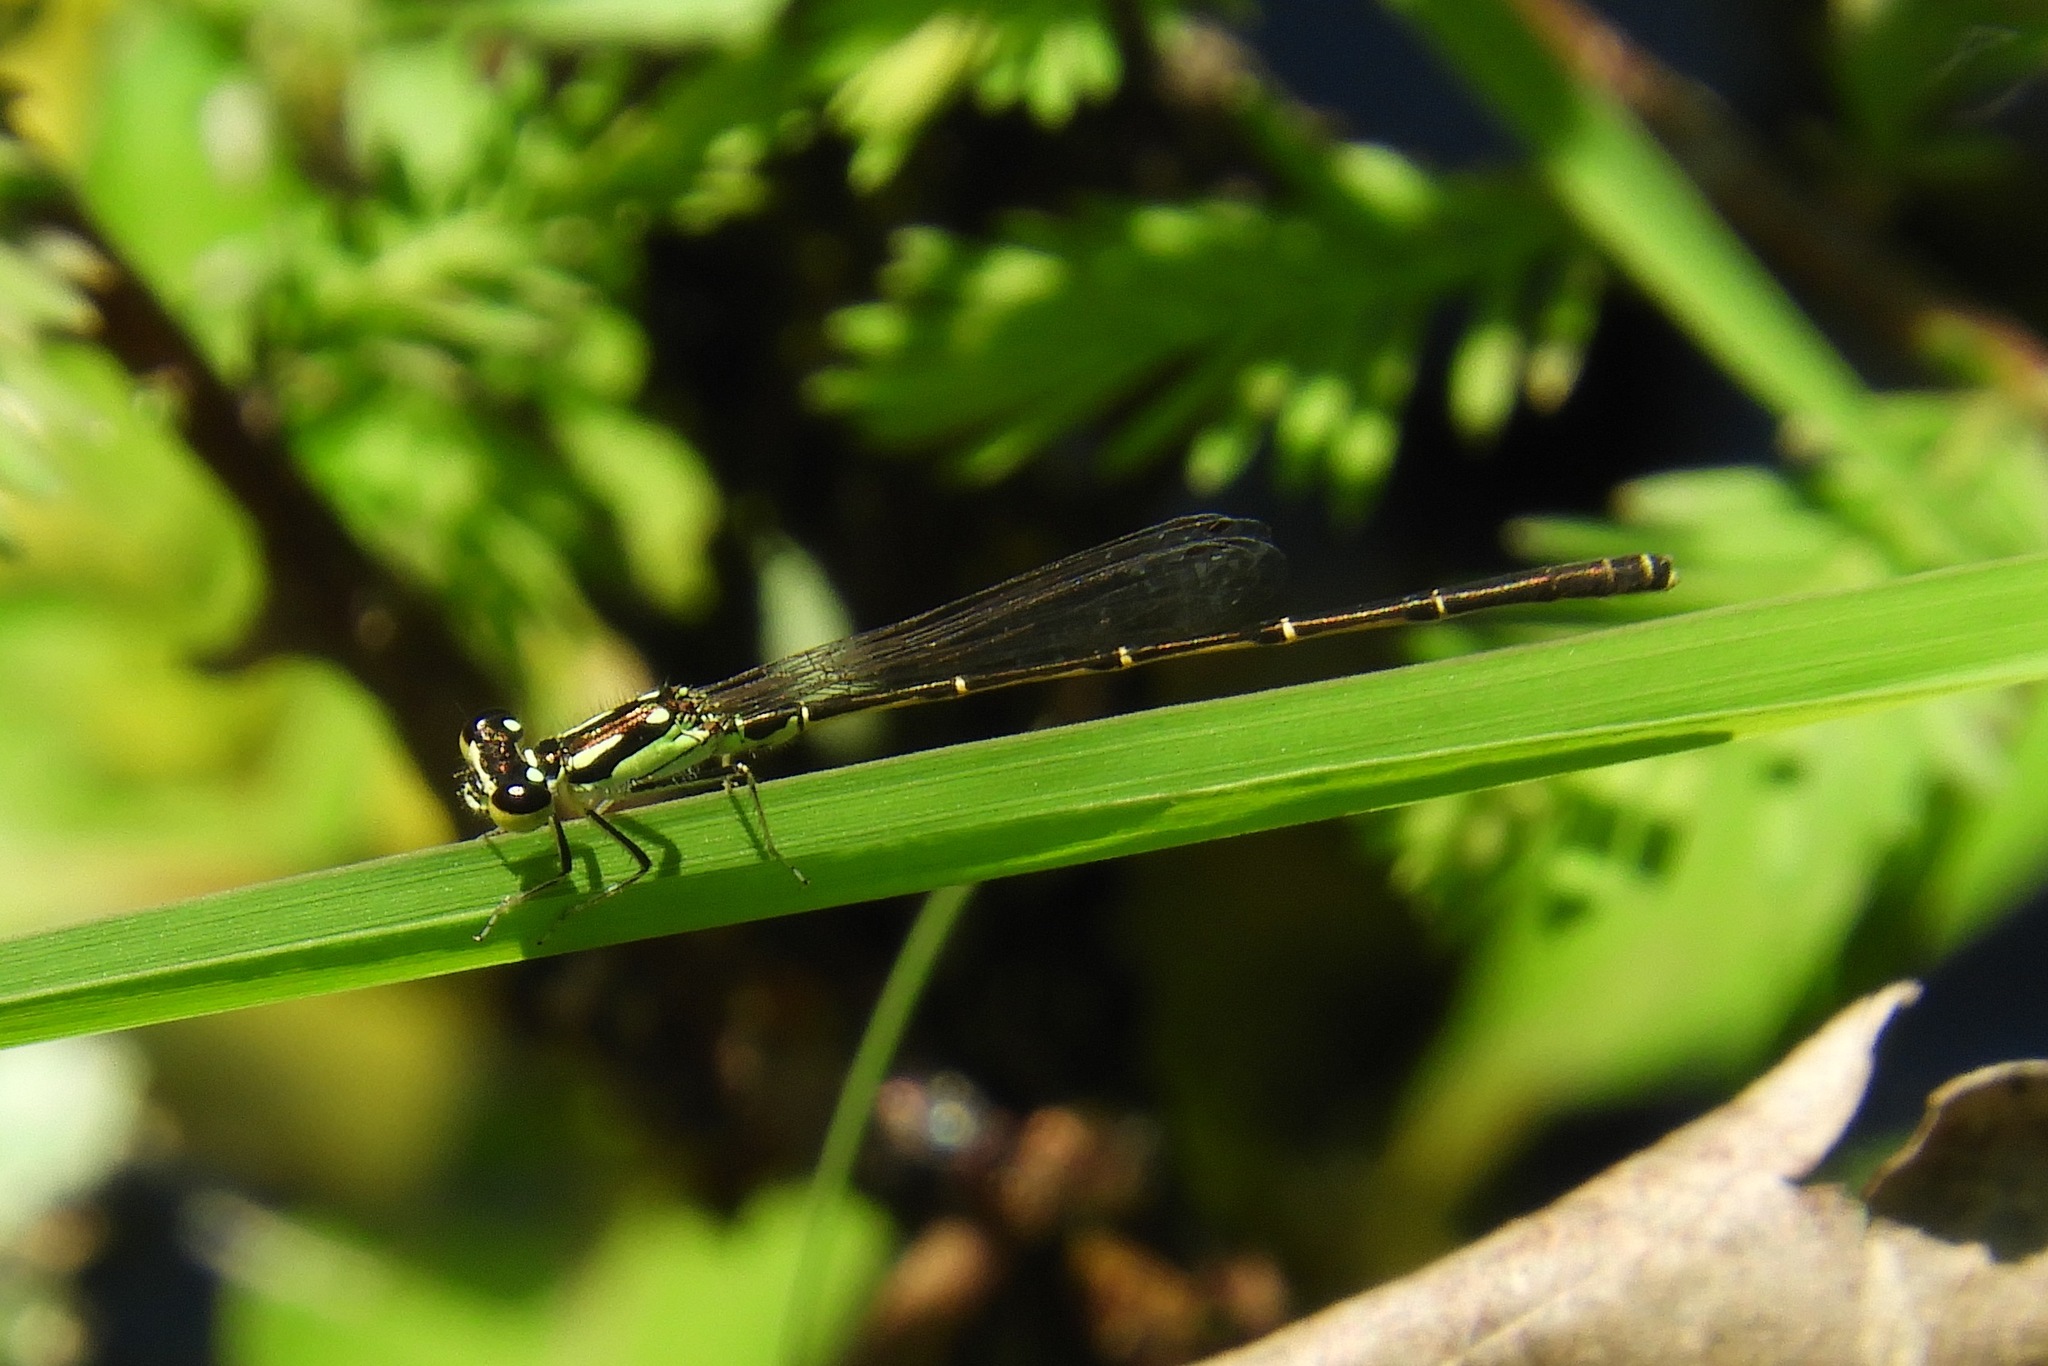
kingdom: Animalia
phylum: Arthropoda
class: Insecta
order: Odonata
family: Coenagrionidae
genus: Ischnura
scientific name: Ischnura posita
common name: Fragile forktail
